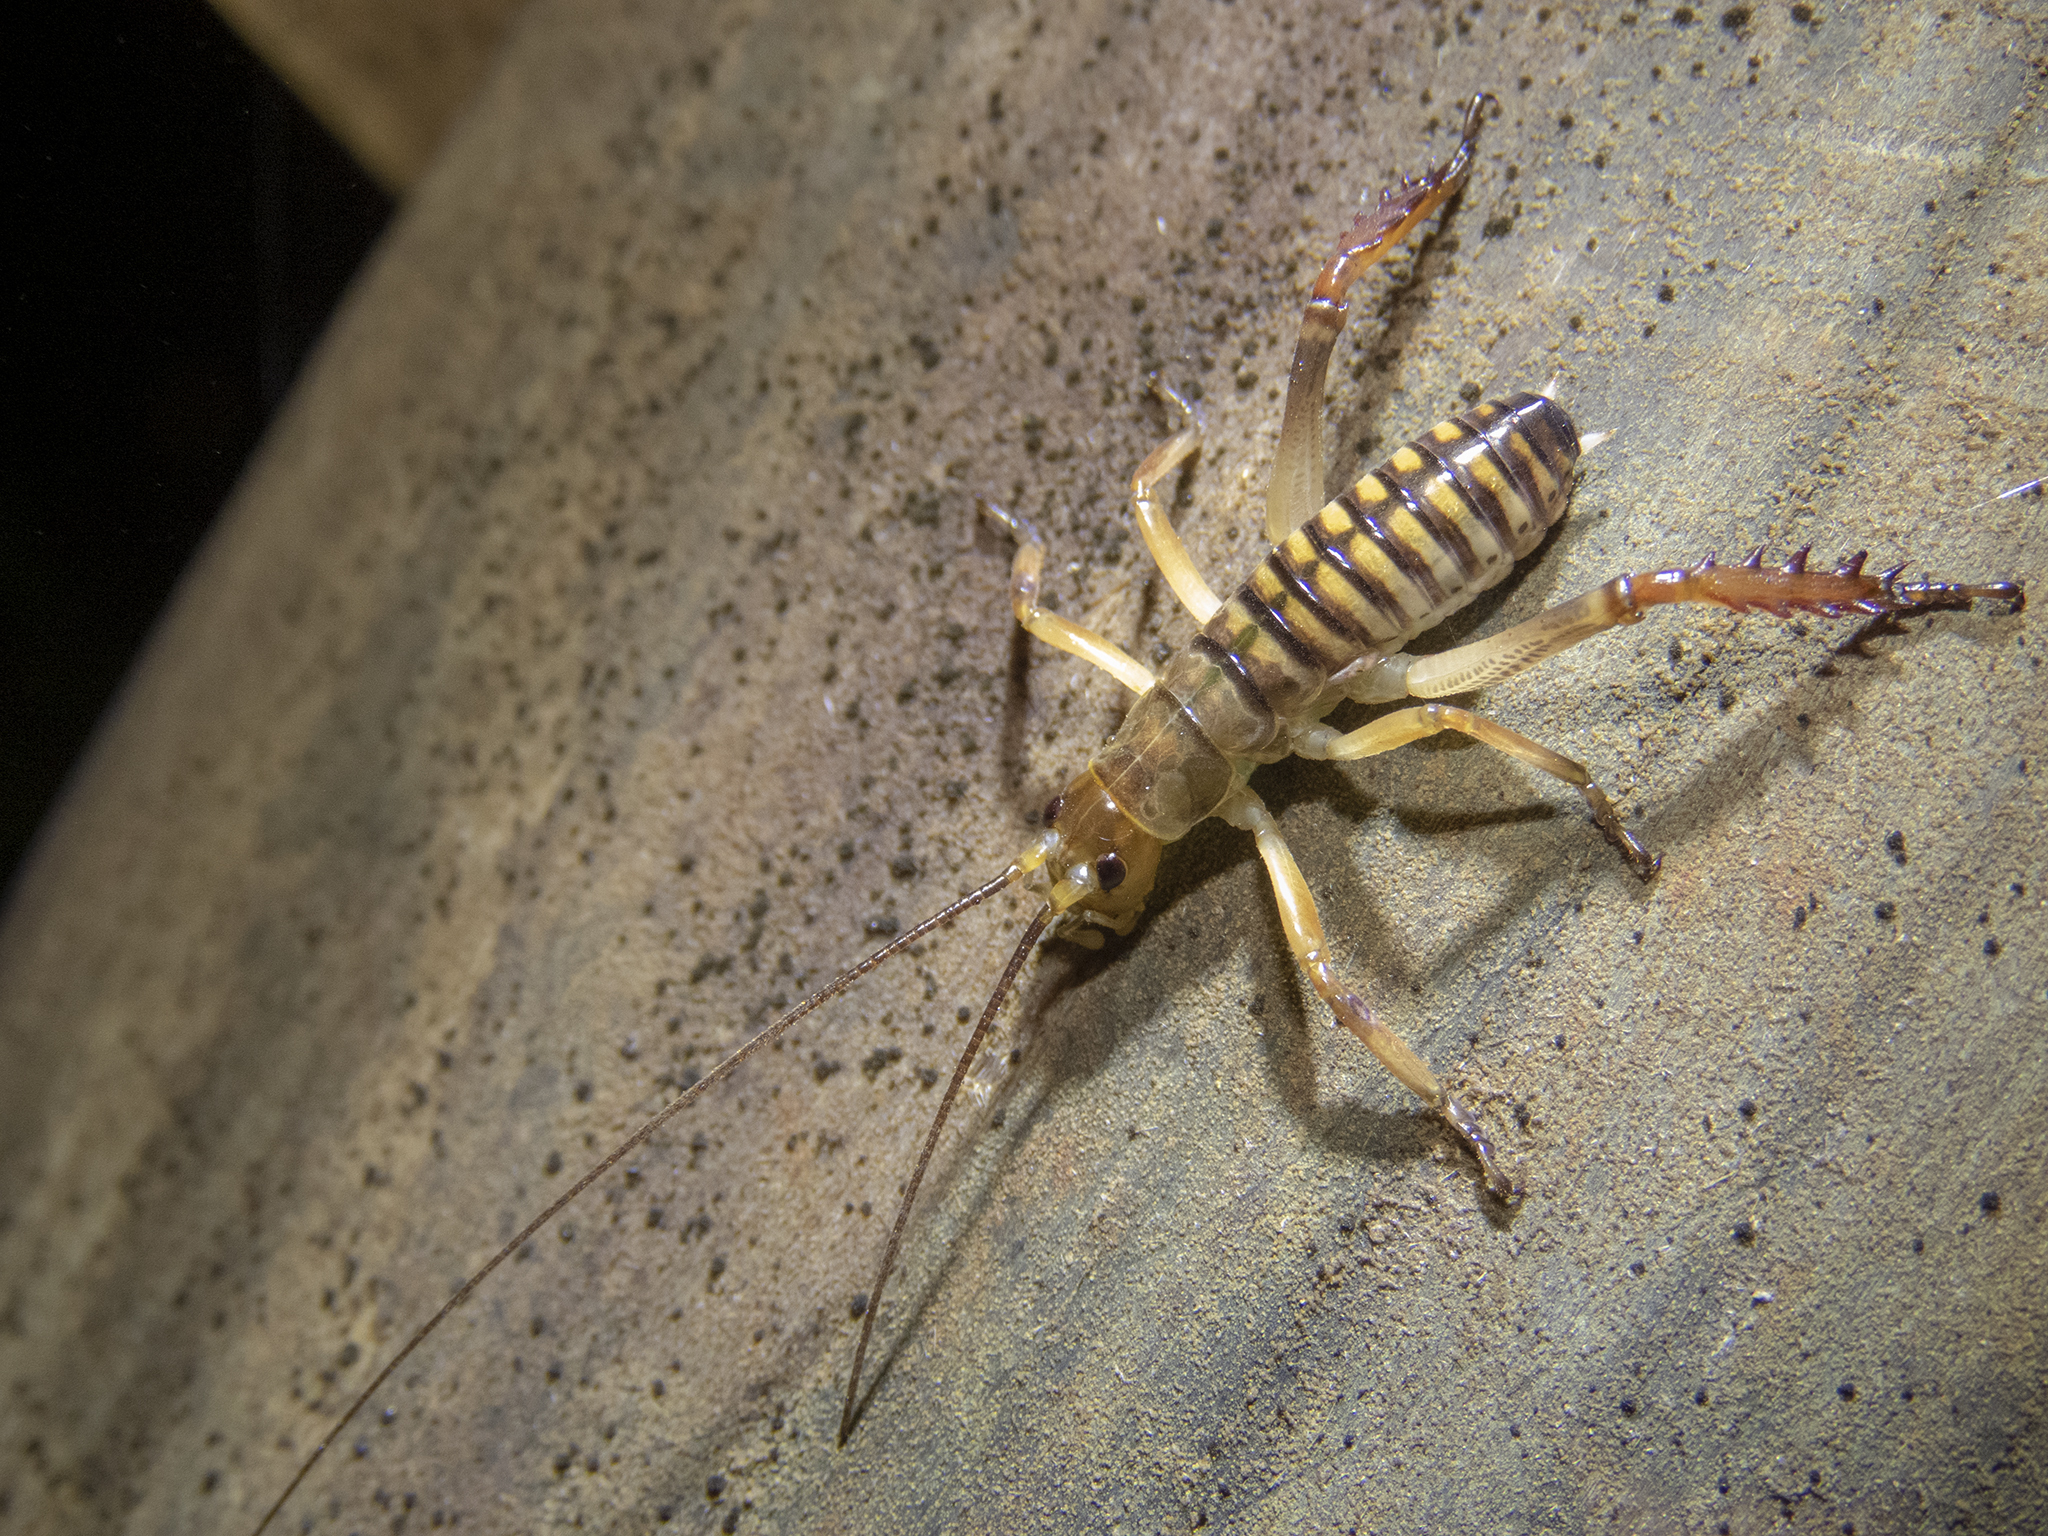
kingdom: Animalia
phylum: Arthropoda
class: Insecta
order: Orthoptera
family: Anostostomatidae
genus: Hemideina
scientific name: Hemideina crassidens
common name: Wellington tree weta
